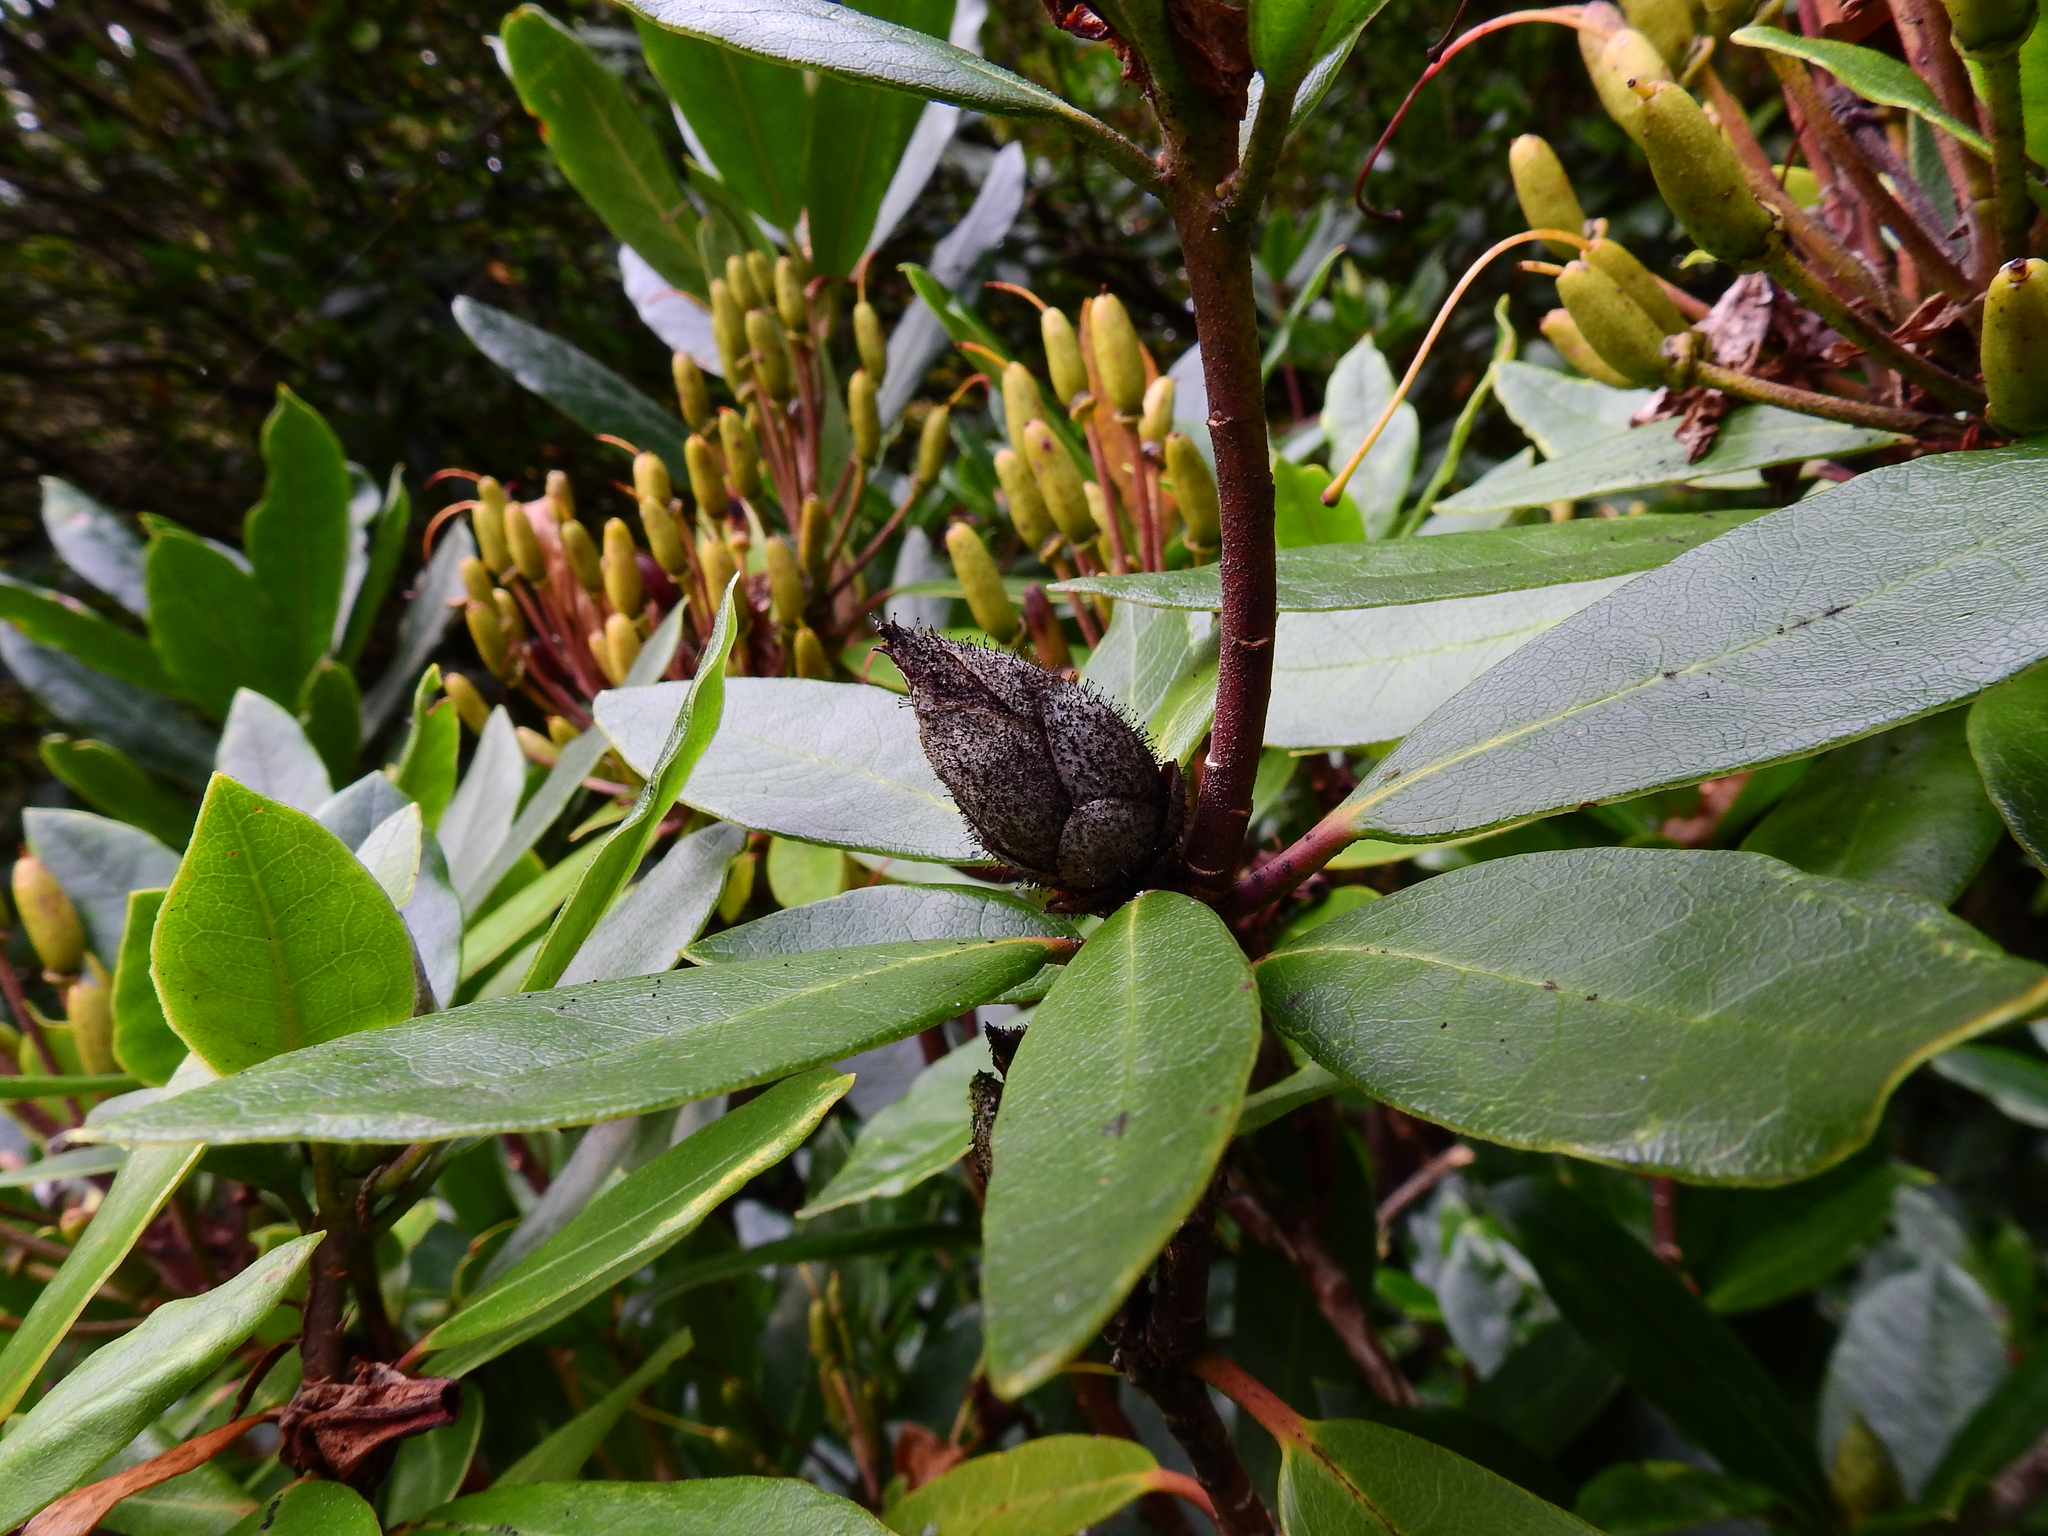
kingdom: Fungi
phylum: Ascomycota
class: Dothideomycetes
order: Pleosporales
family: Melanommataceae
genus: Seifertia
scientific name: Seifertia azaleae
